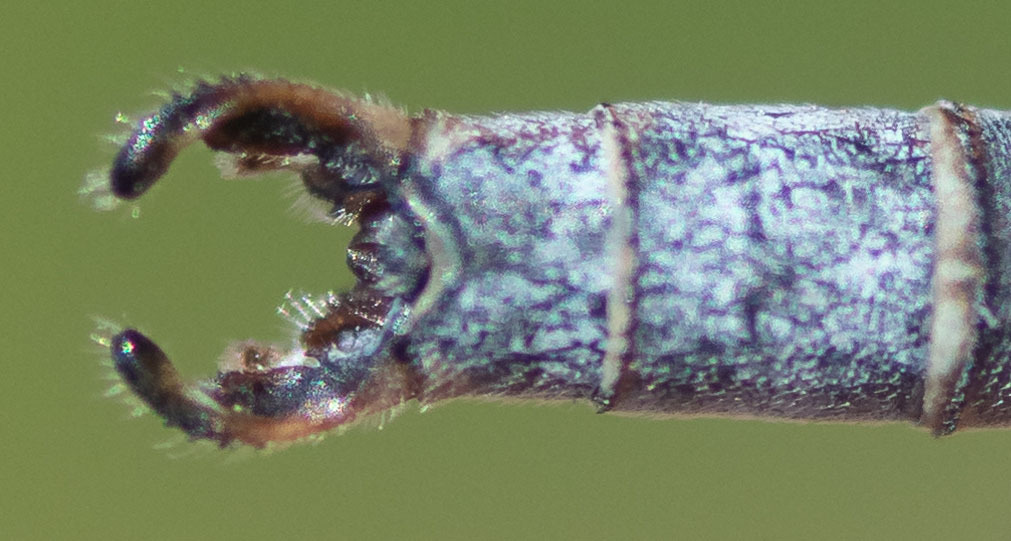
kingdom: Animalia
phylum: Arthropoda
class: Insecta
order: Odonata
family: Lestidae
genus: Lestes
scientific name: Lestes congener
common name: Spotted spreadwing
